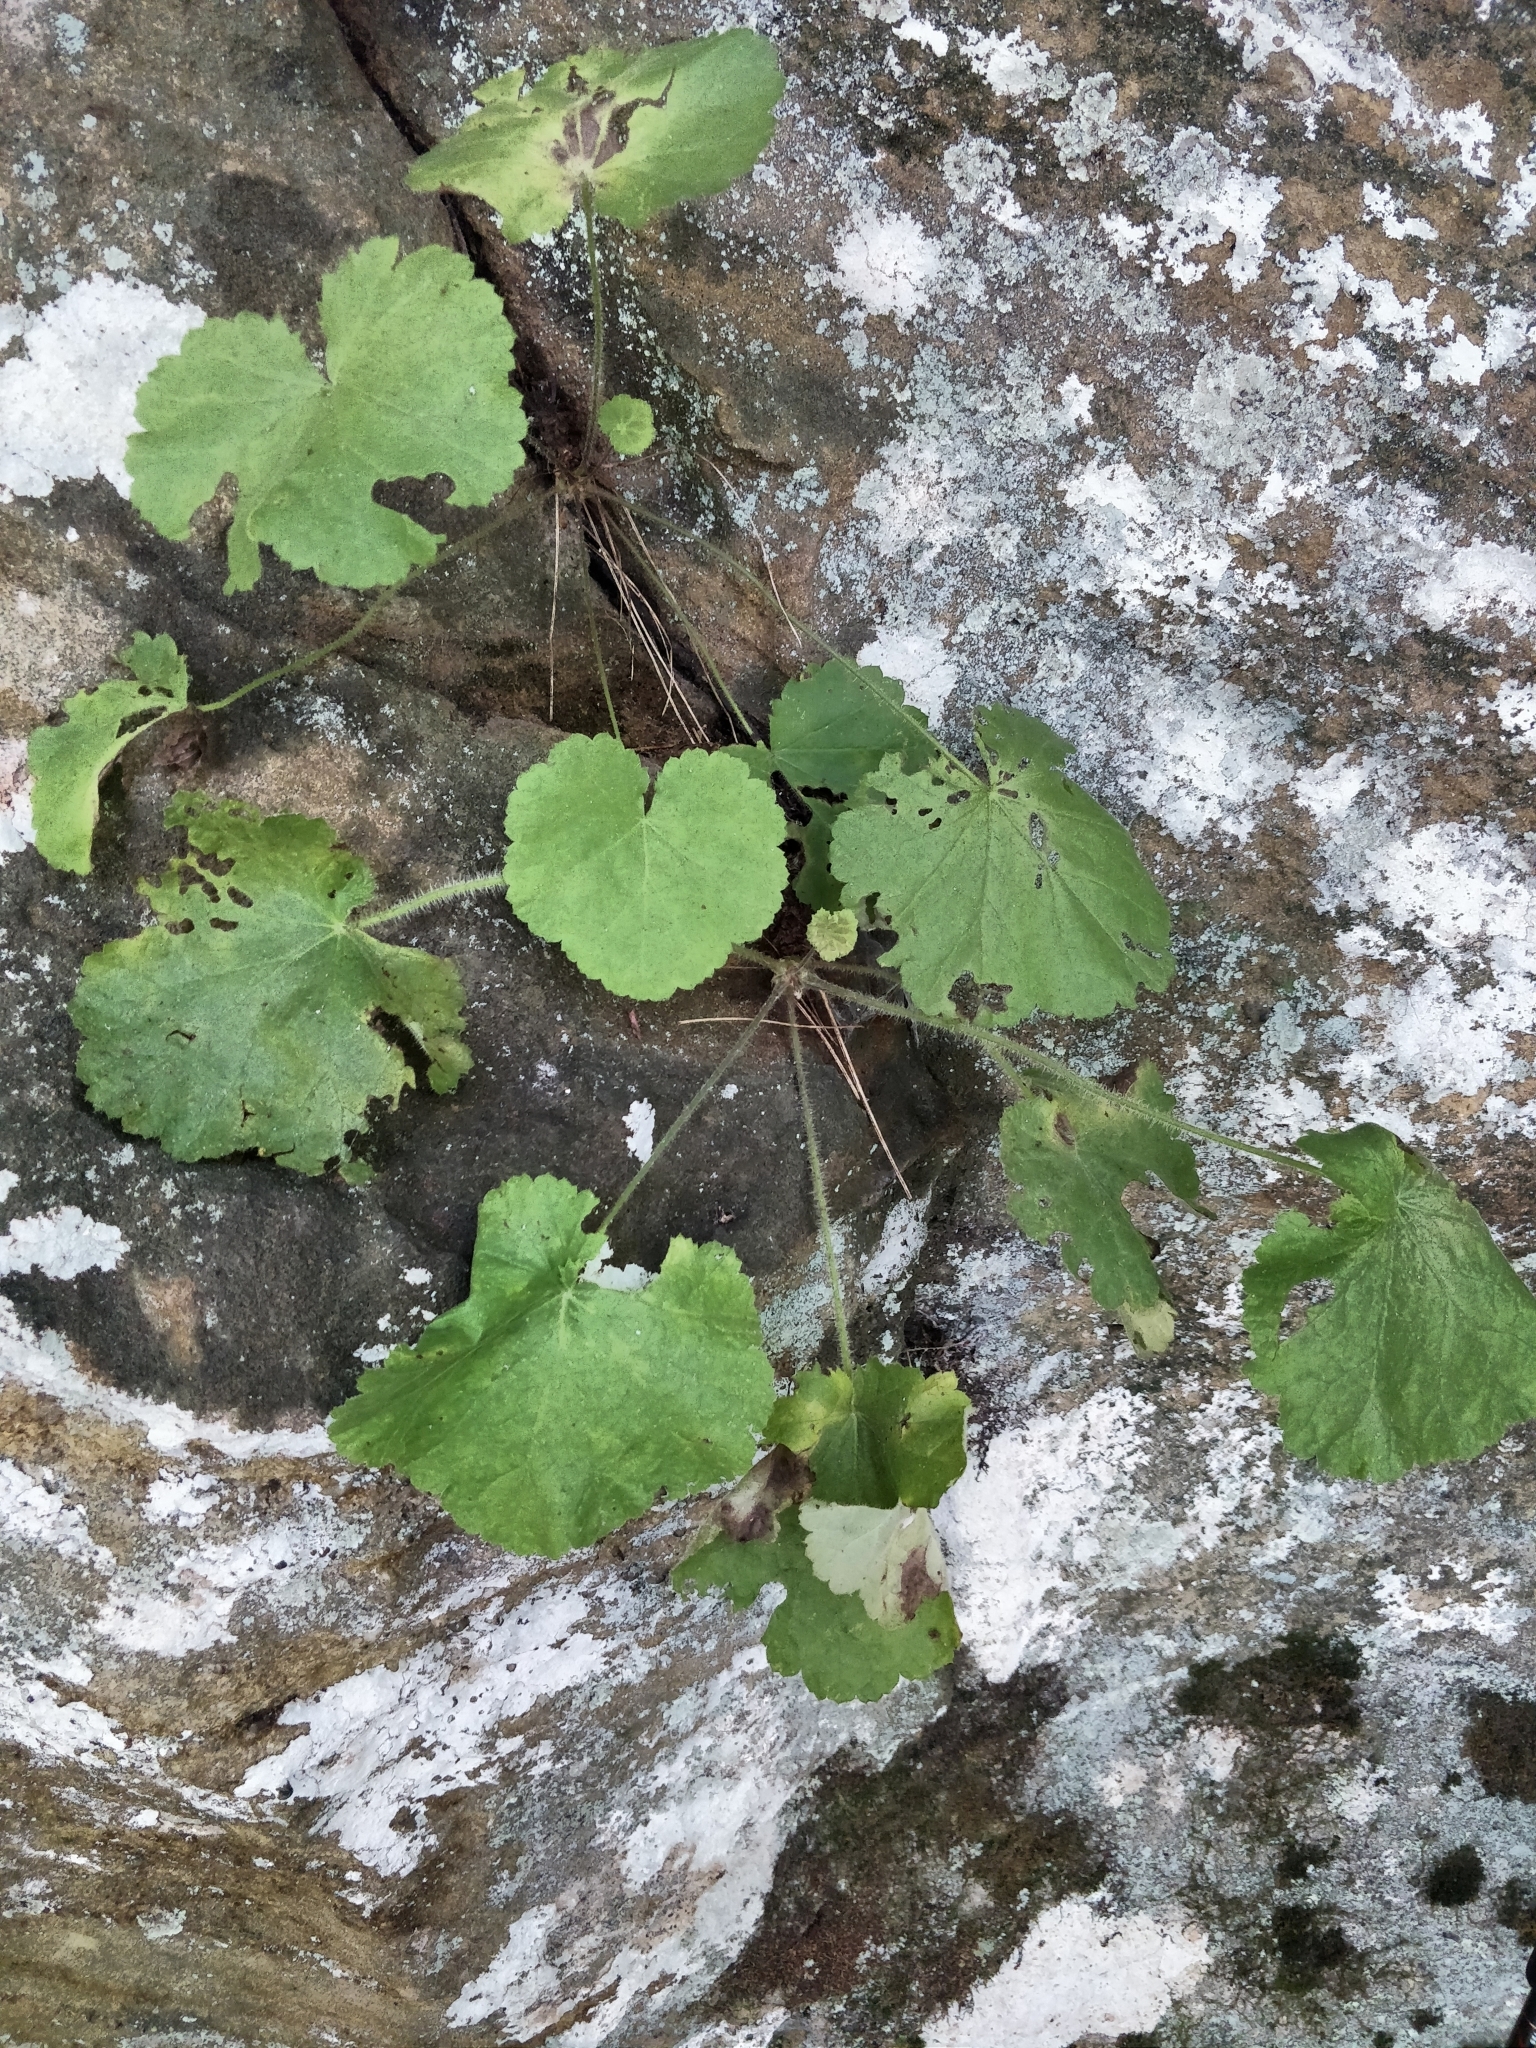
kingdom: Plantae
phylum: Tracheophyta
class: Magnoliopsida
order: Saxifragales
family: Saxifragaceae
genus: Heuchera
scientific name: Heuchera parviflora
